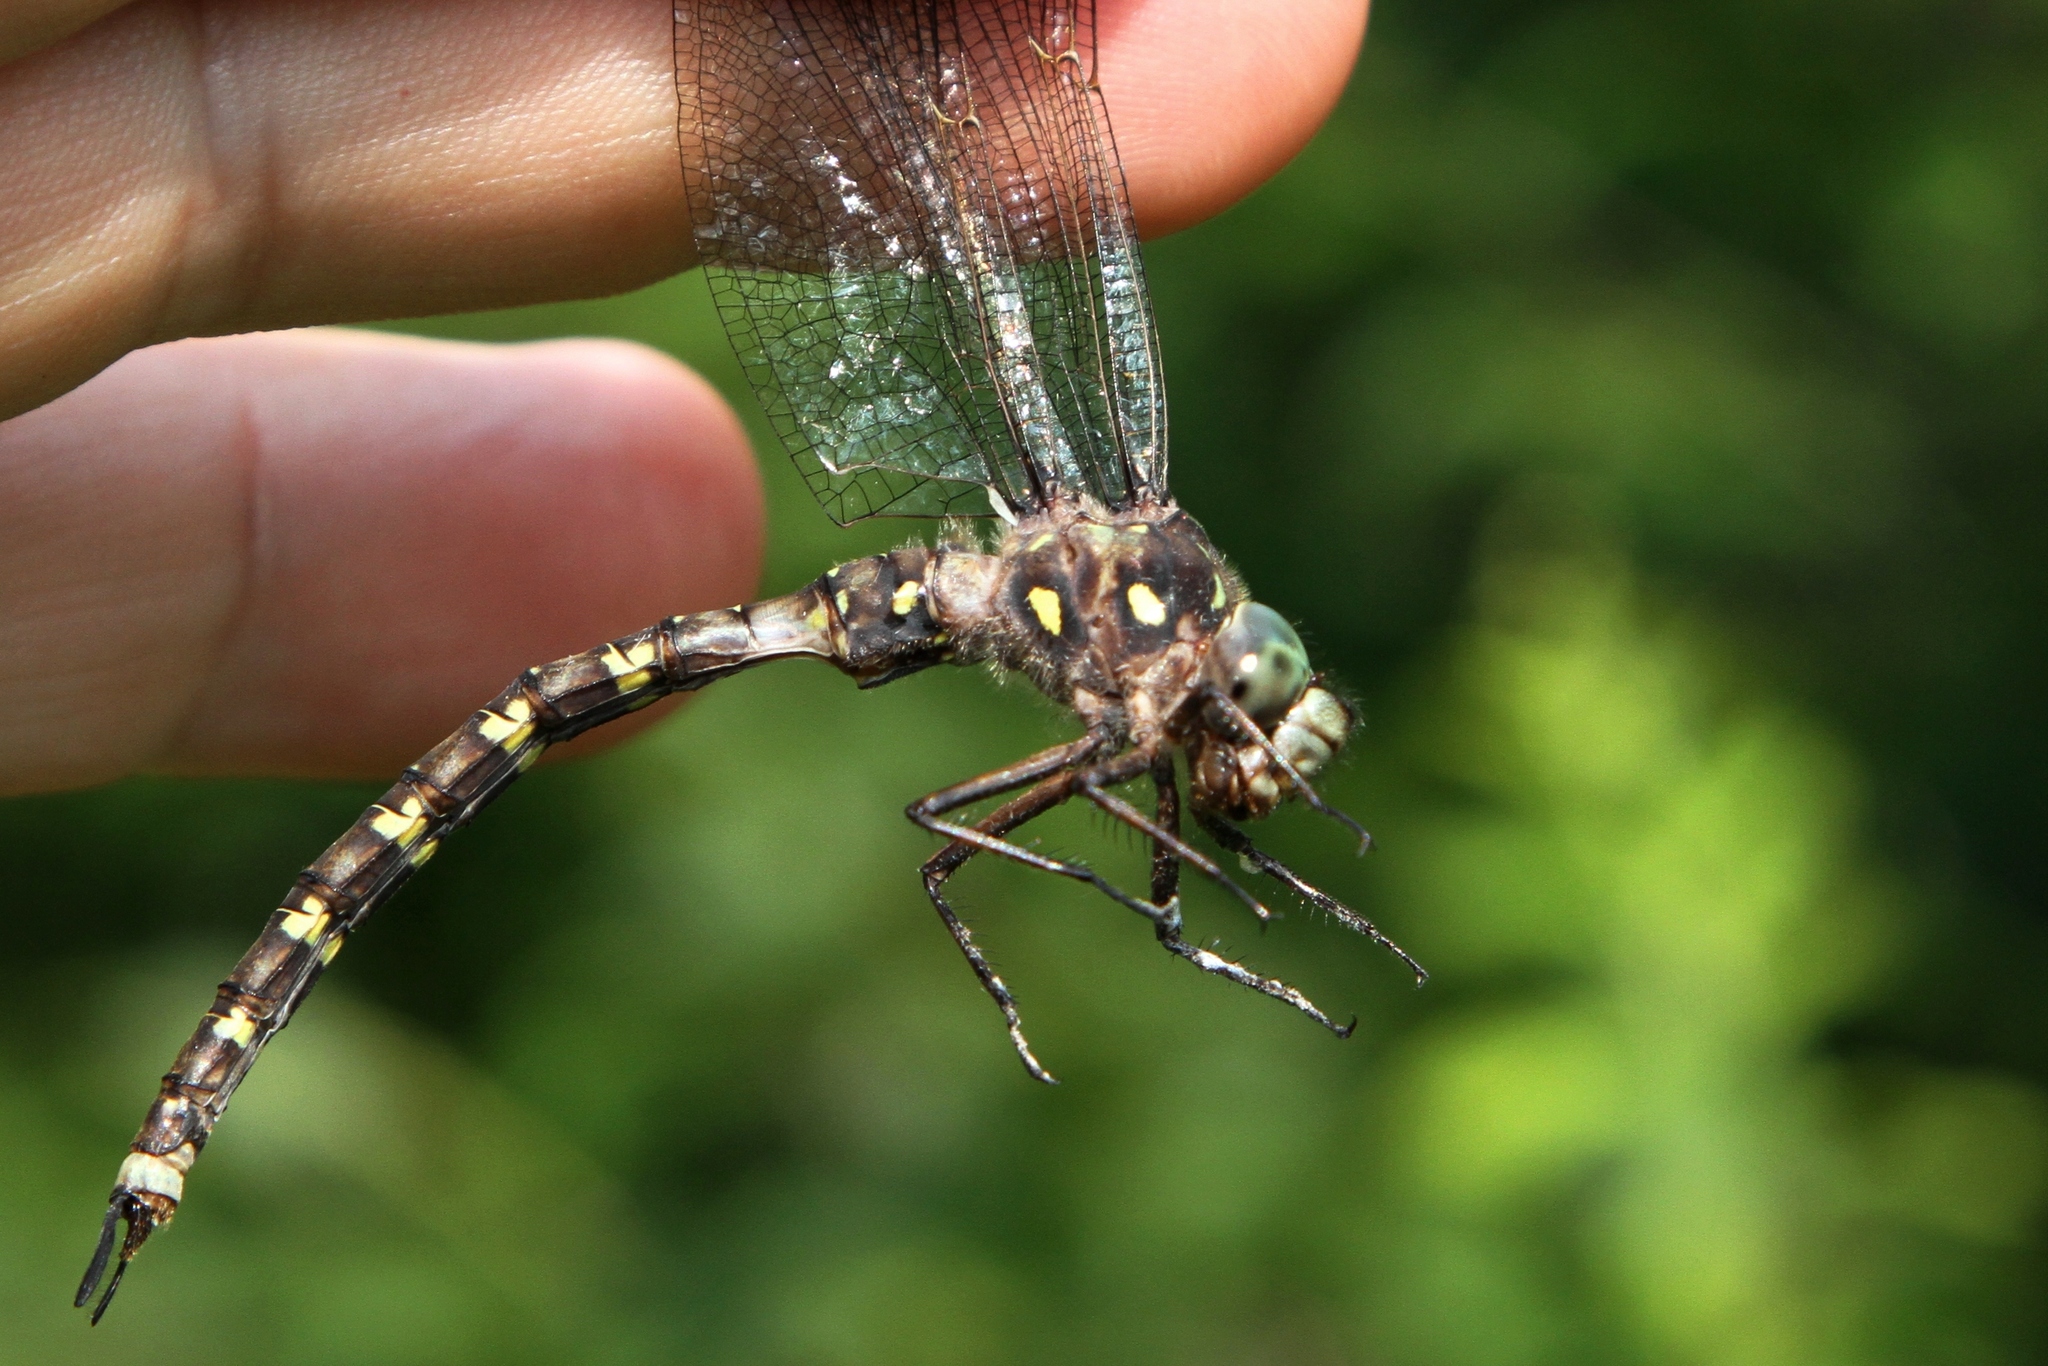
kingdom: Animalia
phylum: Arthropoda
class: Insecta
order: Odonata
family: Aeshnidae
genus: Boyeria
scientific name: Boyeria grafiana
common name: Ocellated darner
